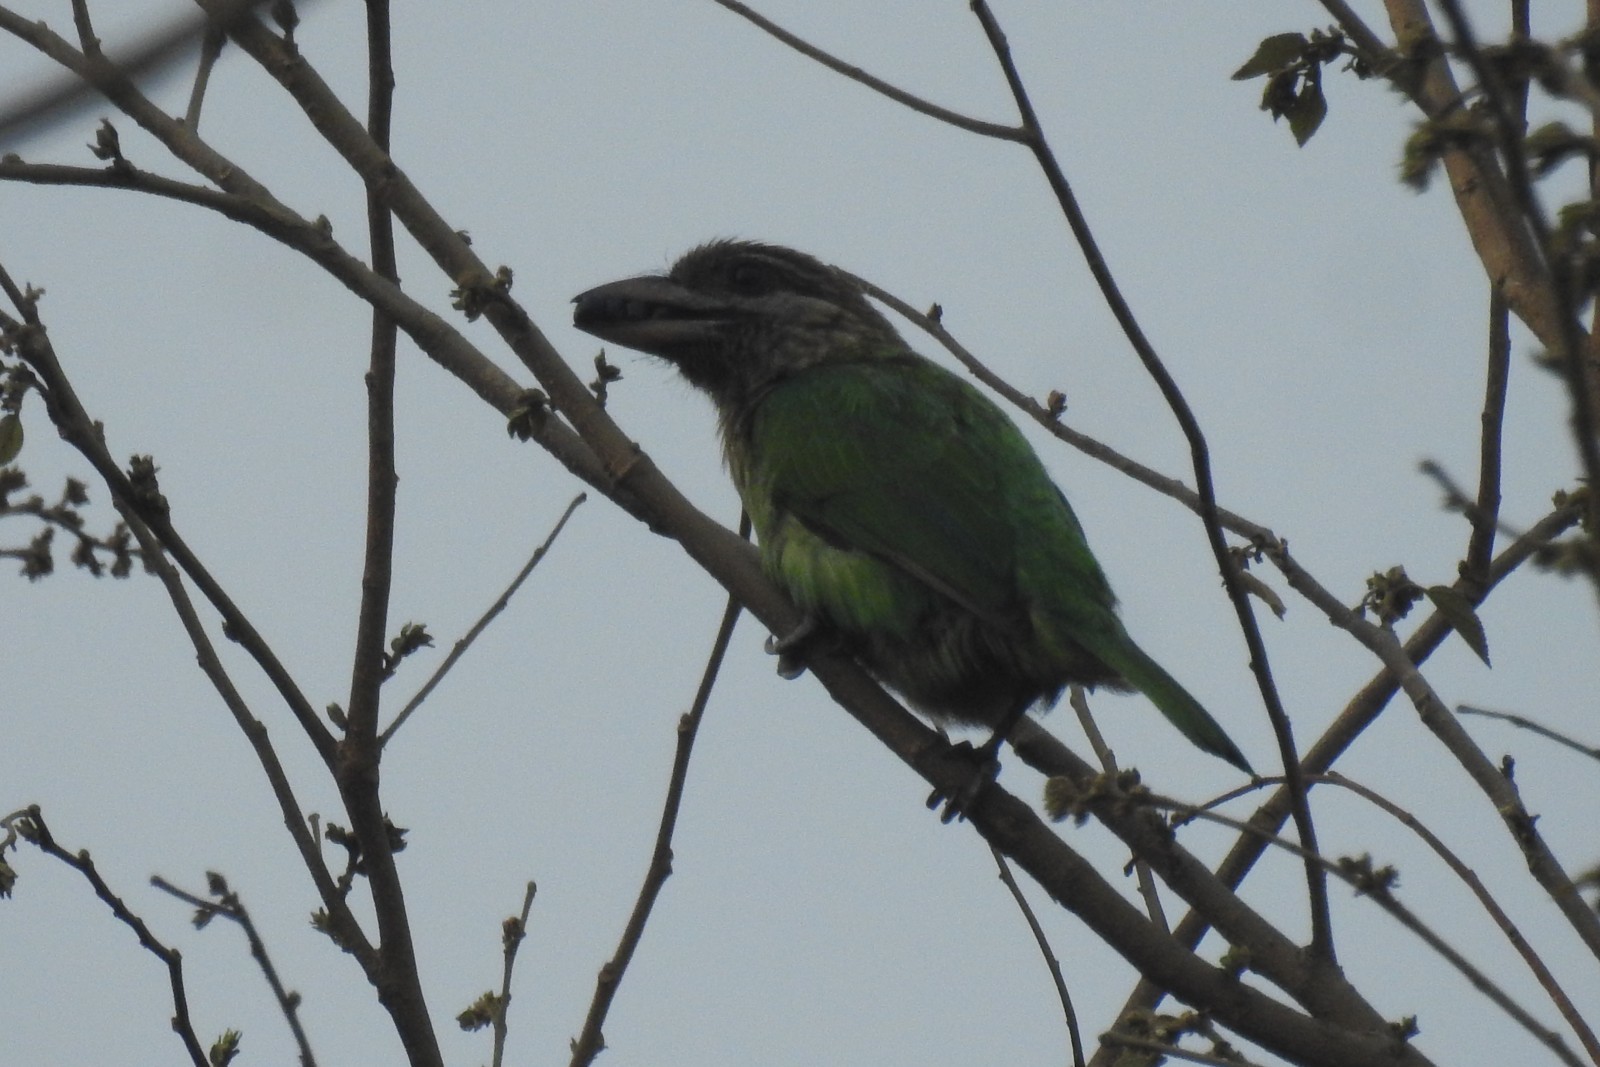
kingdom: Animalia
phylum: Chordata
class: Aves
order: Piciformes
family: Megalaimidae
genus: Psilopogon
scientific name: Psilopogon viridis
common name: White-cheeked barbet
